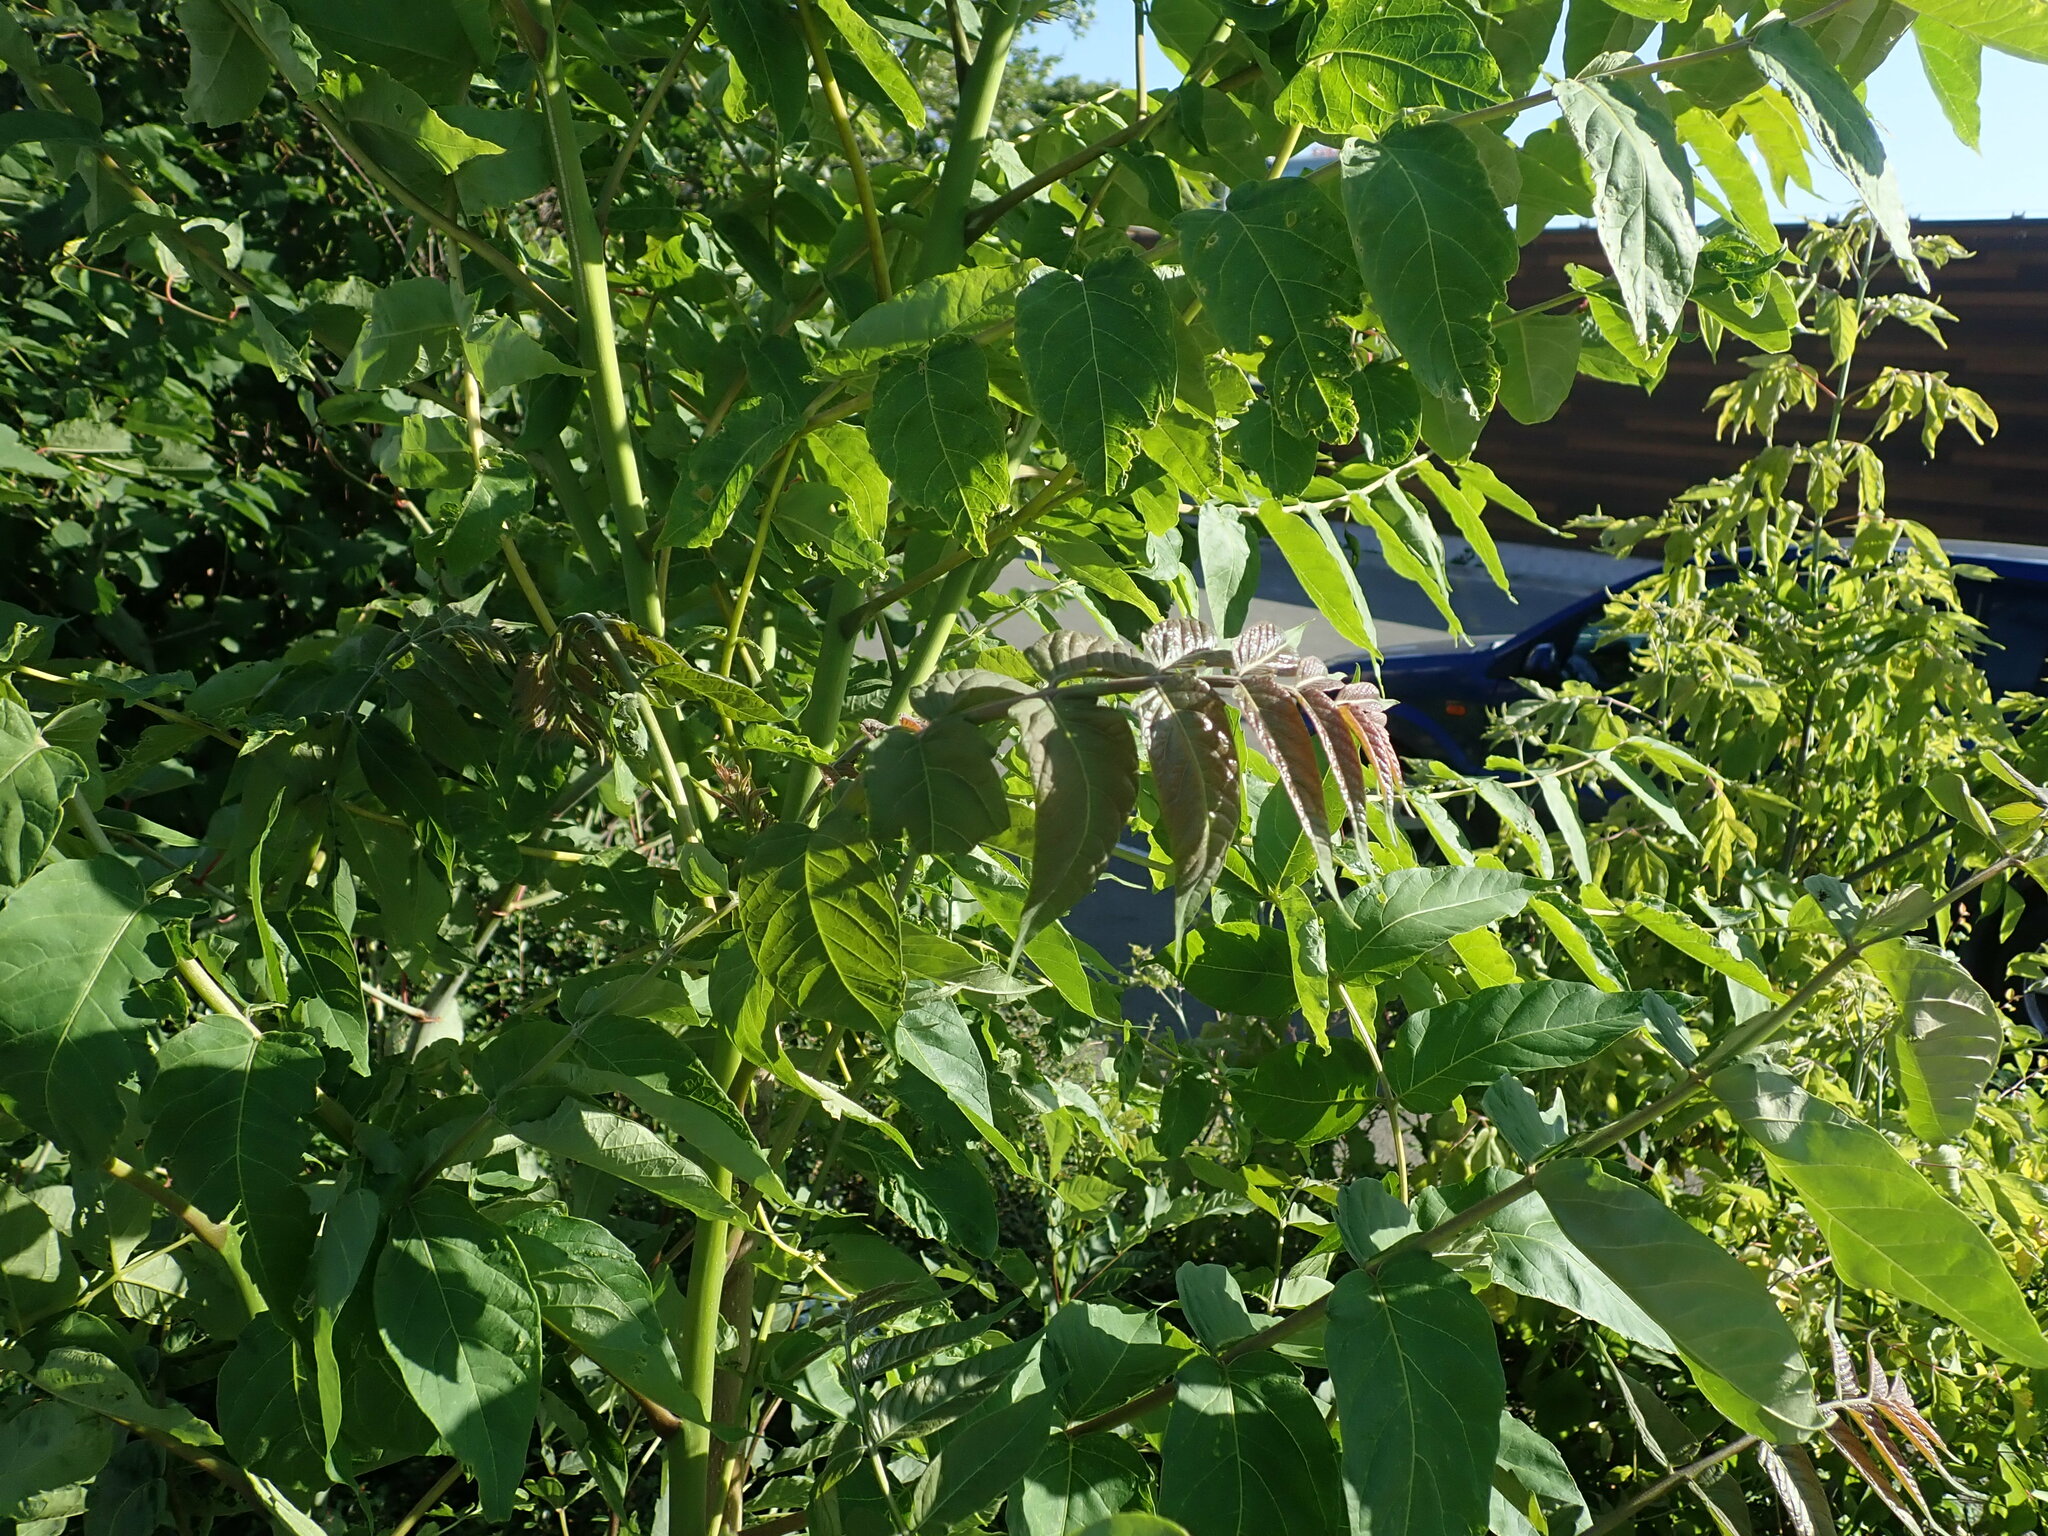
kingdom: Plantae
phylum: Tracheophyta
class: Magnoliopsida
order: Sapindales
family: Simaroubaceae
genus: Ailanthus
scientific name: Ailanthus altissima
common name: Tree-of-heaven
